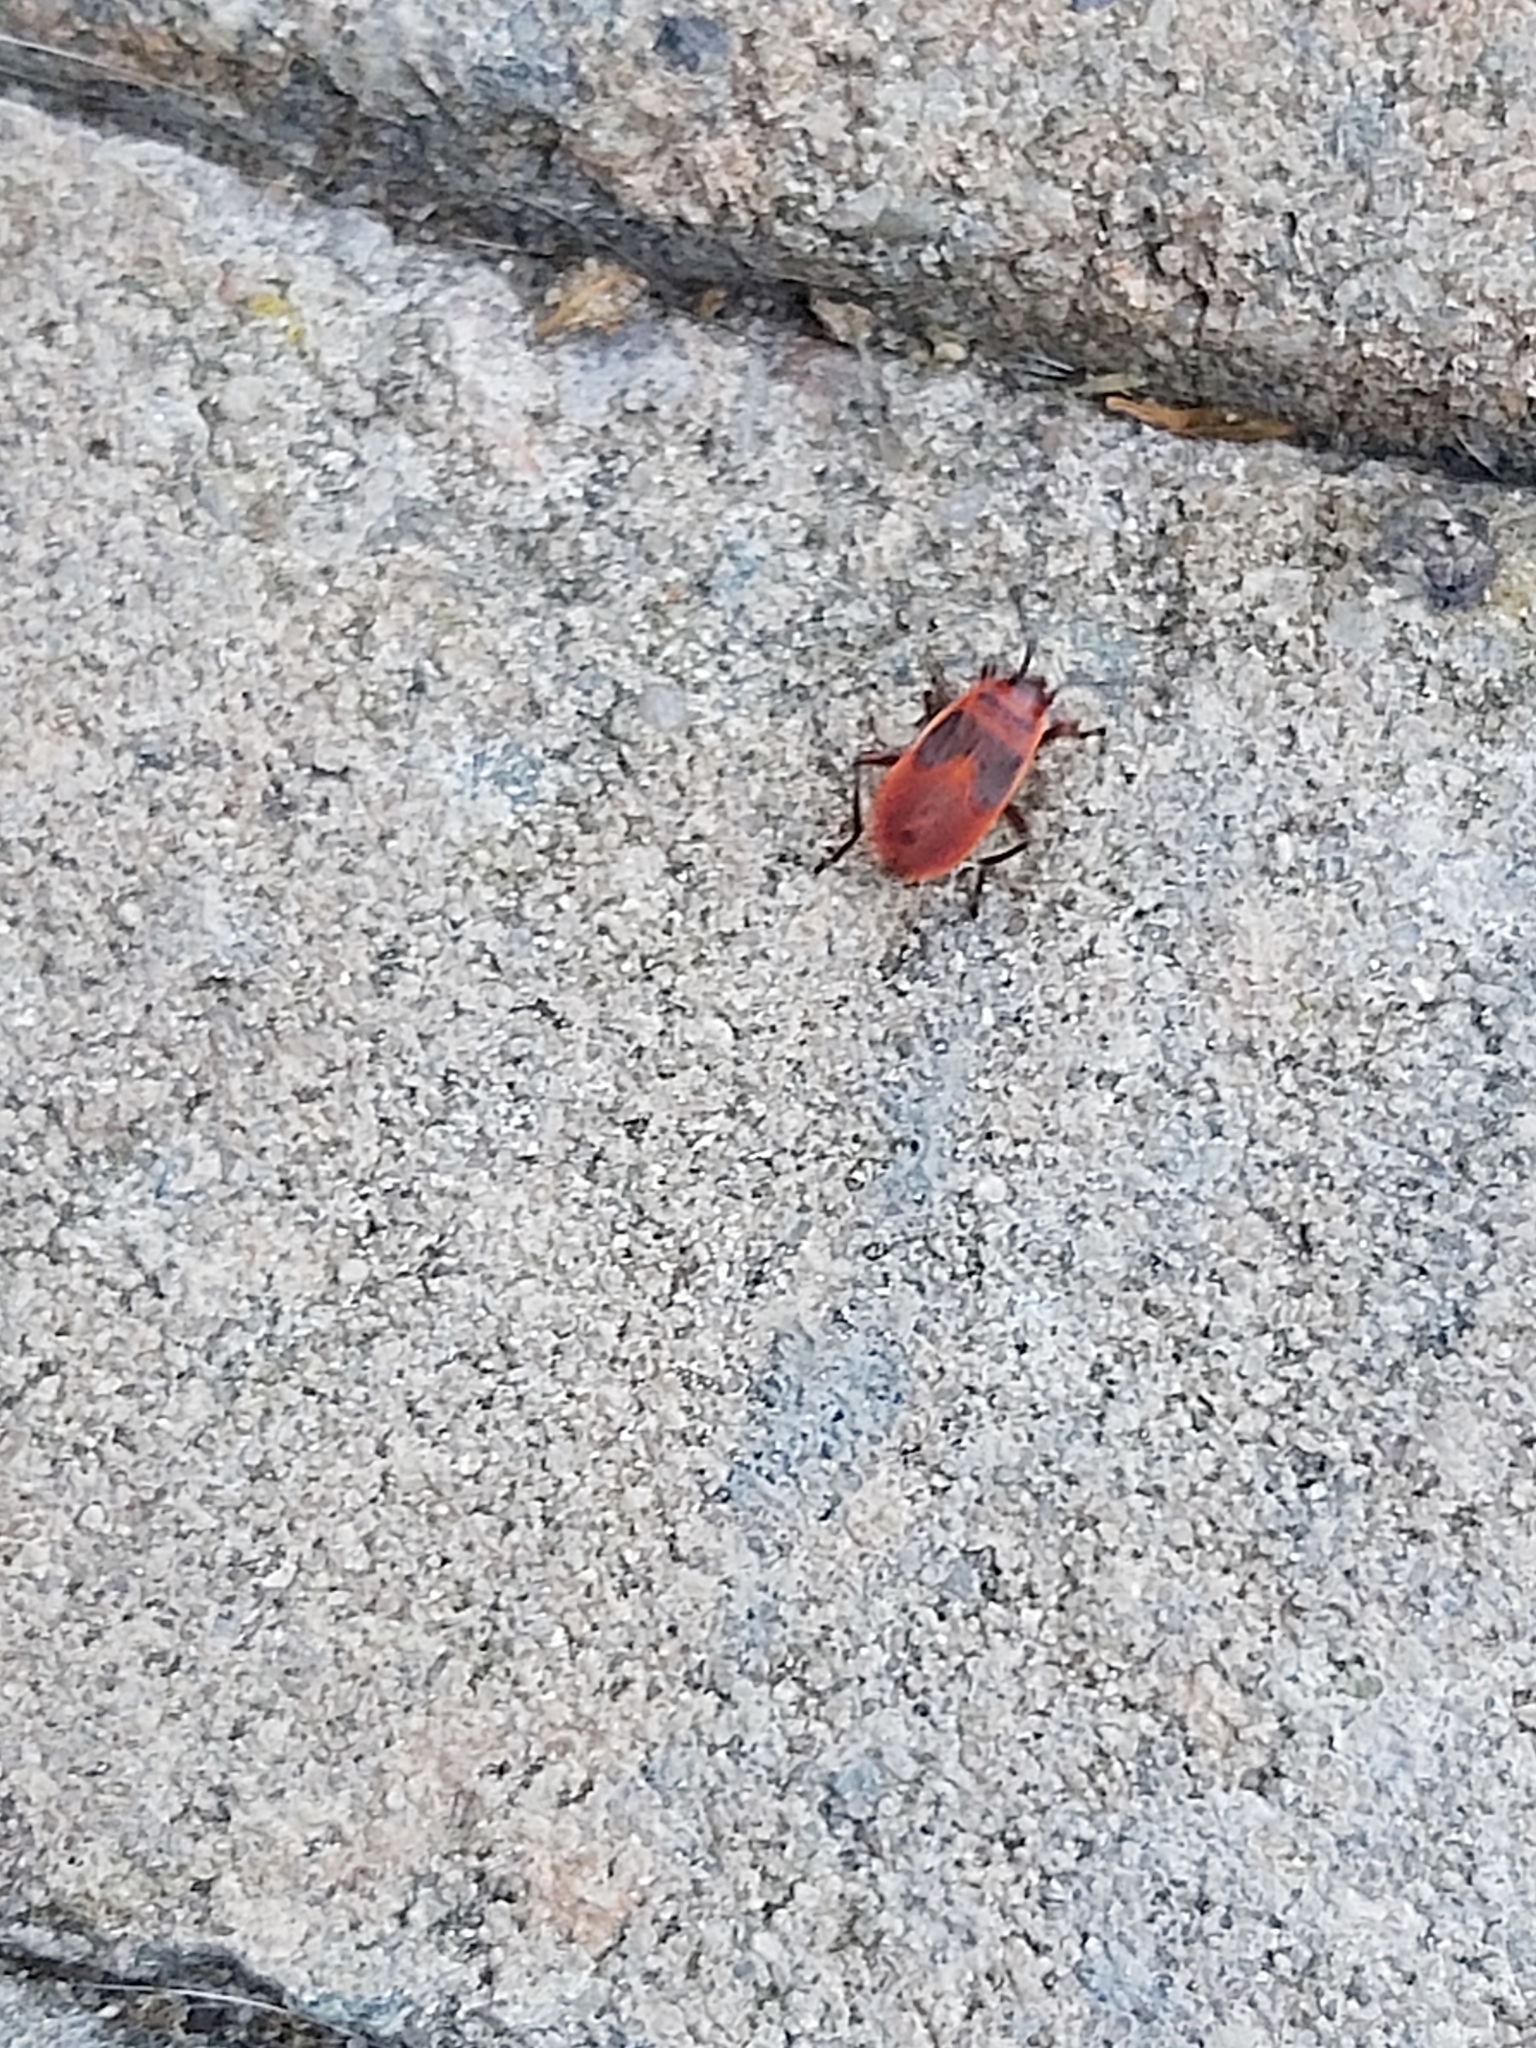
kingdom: Animalia
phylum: Arthropoda
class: Insecta
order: Hemiptera
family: Pyrrhocoridae
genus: Pyrrhocoris
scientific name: Pyrrhocoris apterus
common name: Firebug
